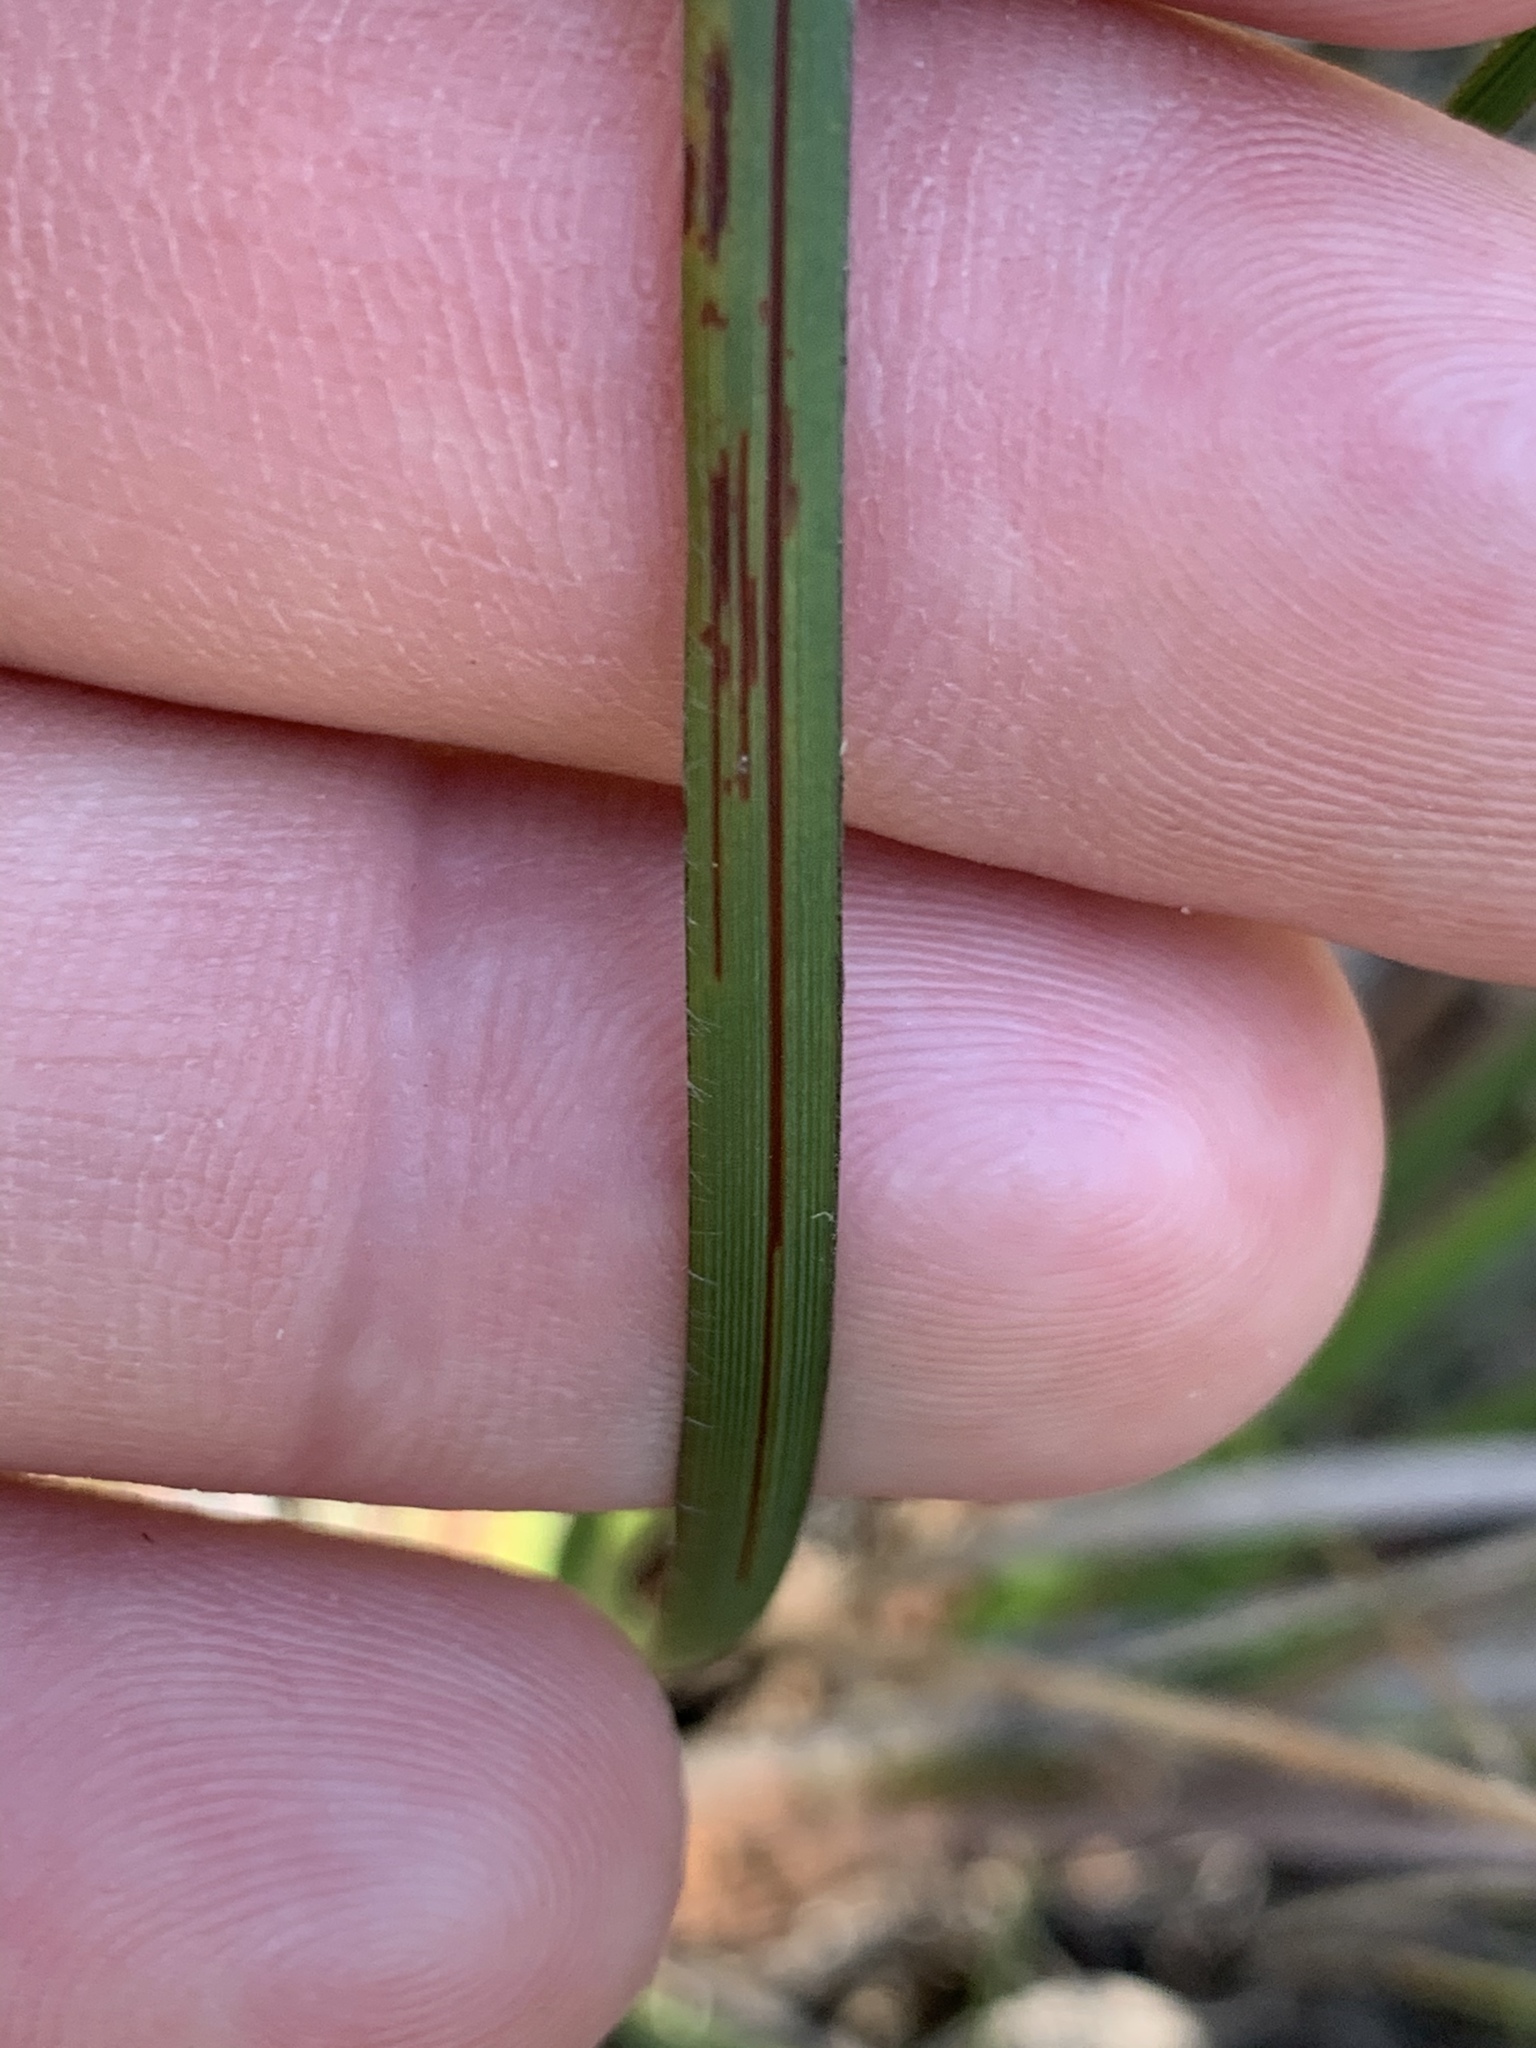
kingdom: Plantae
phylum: Tracheophyta
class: Liliopsida
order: Asparagales
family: Iridaceae
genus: Patersonia
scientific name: Patersonia sericea
